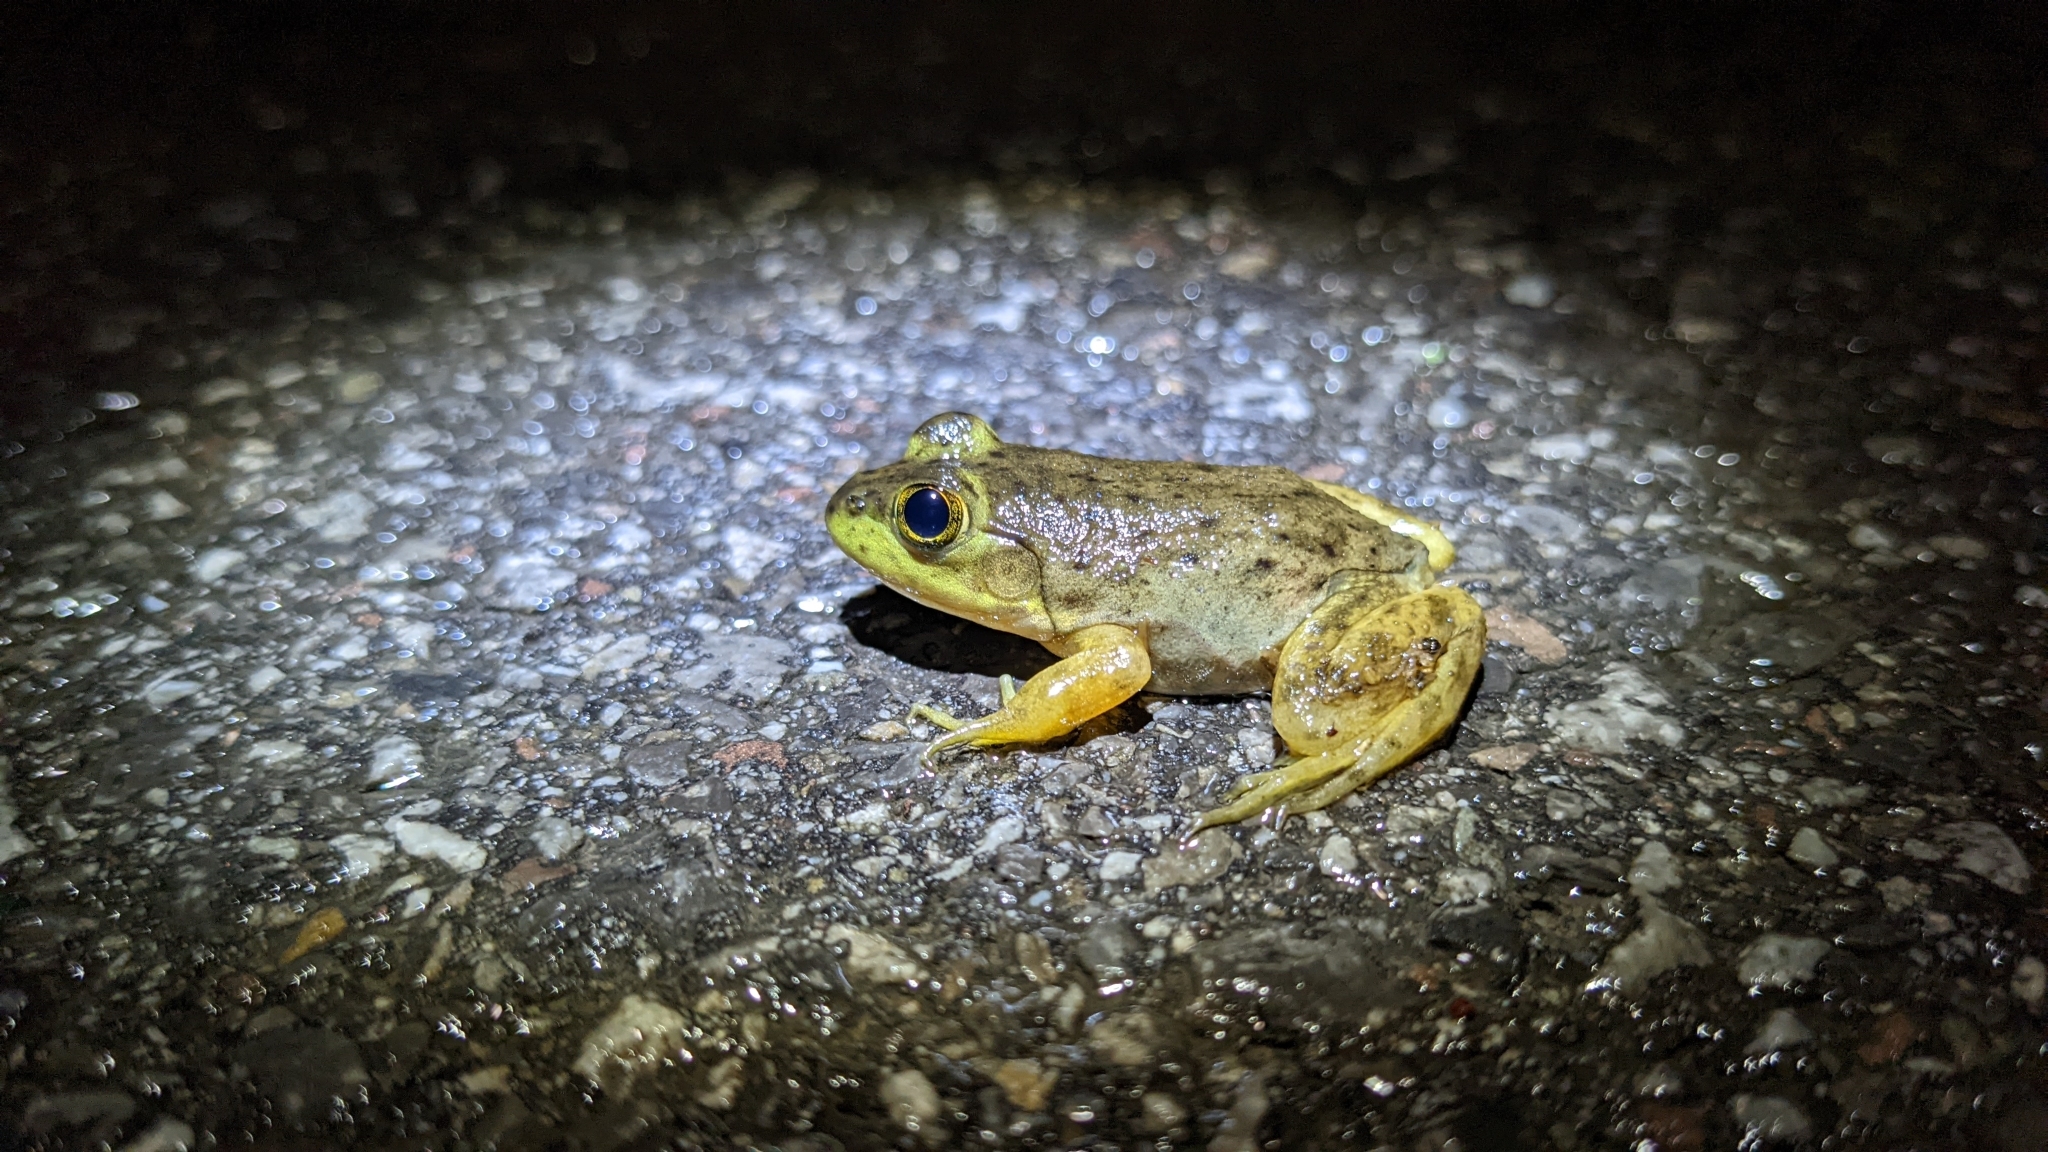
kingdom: Animalia
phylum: Chordata
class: Amphibia
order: Anura
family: Ranidae
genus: Lithobates
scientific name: Lithobates catesbeianus
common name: American bullfrog
